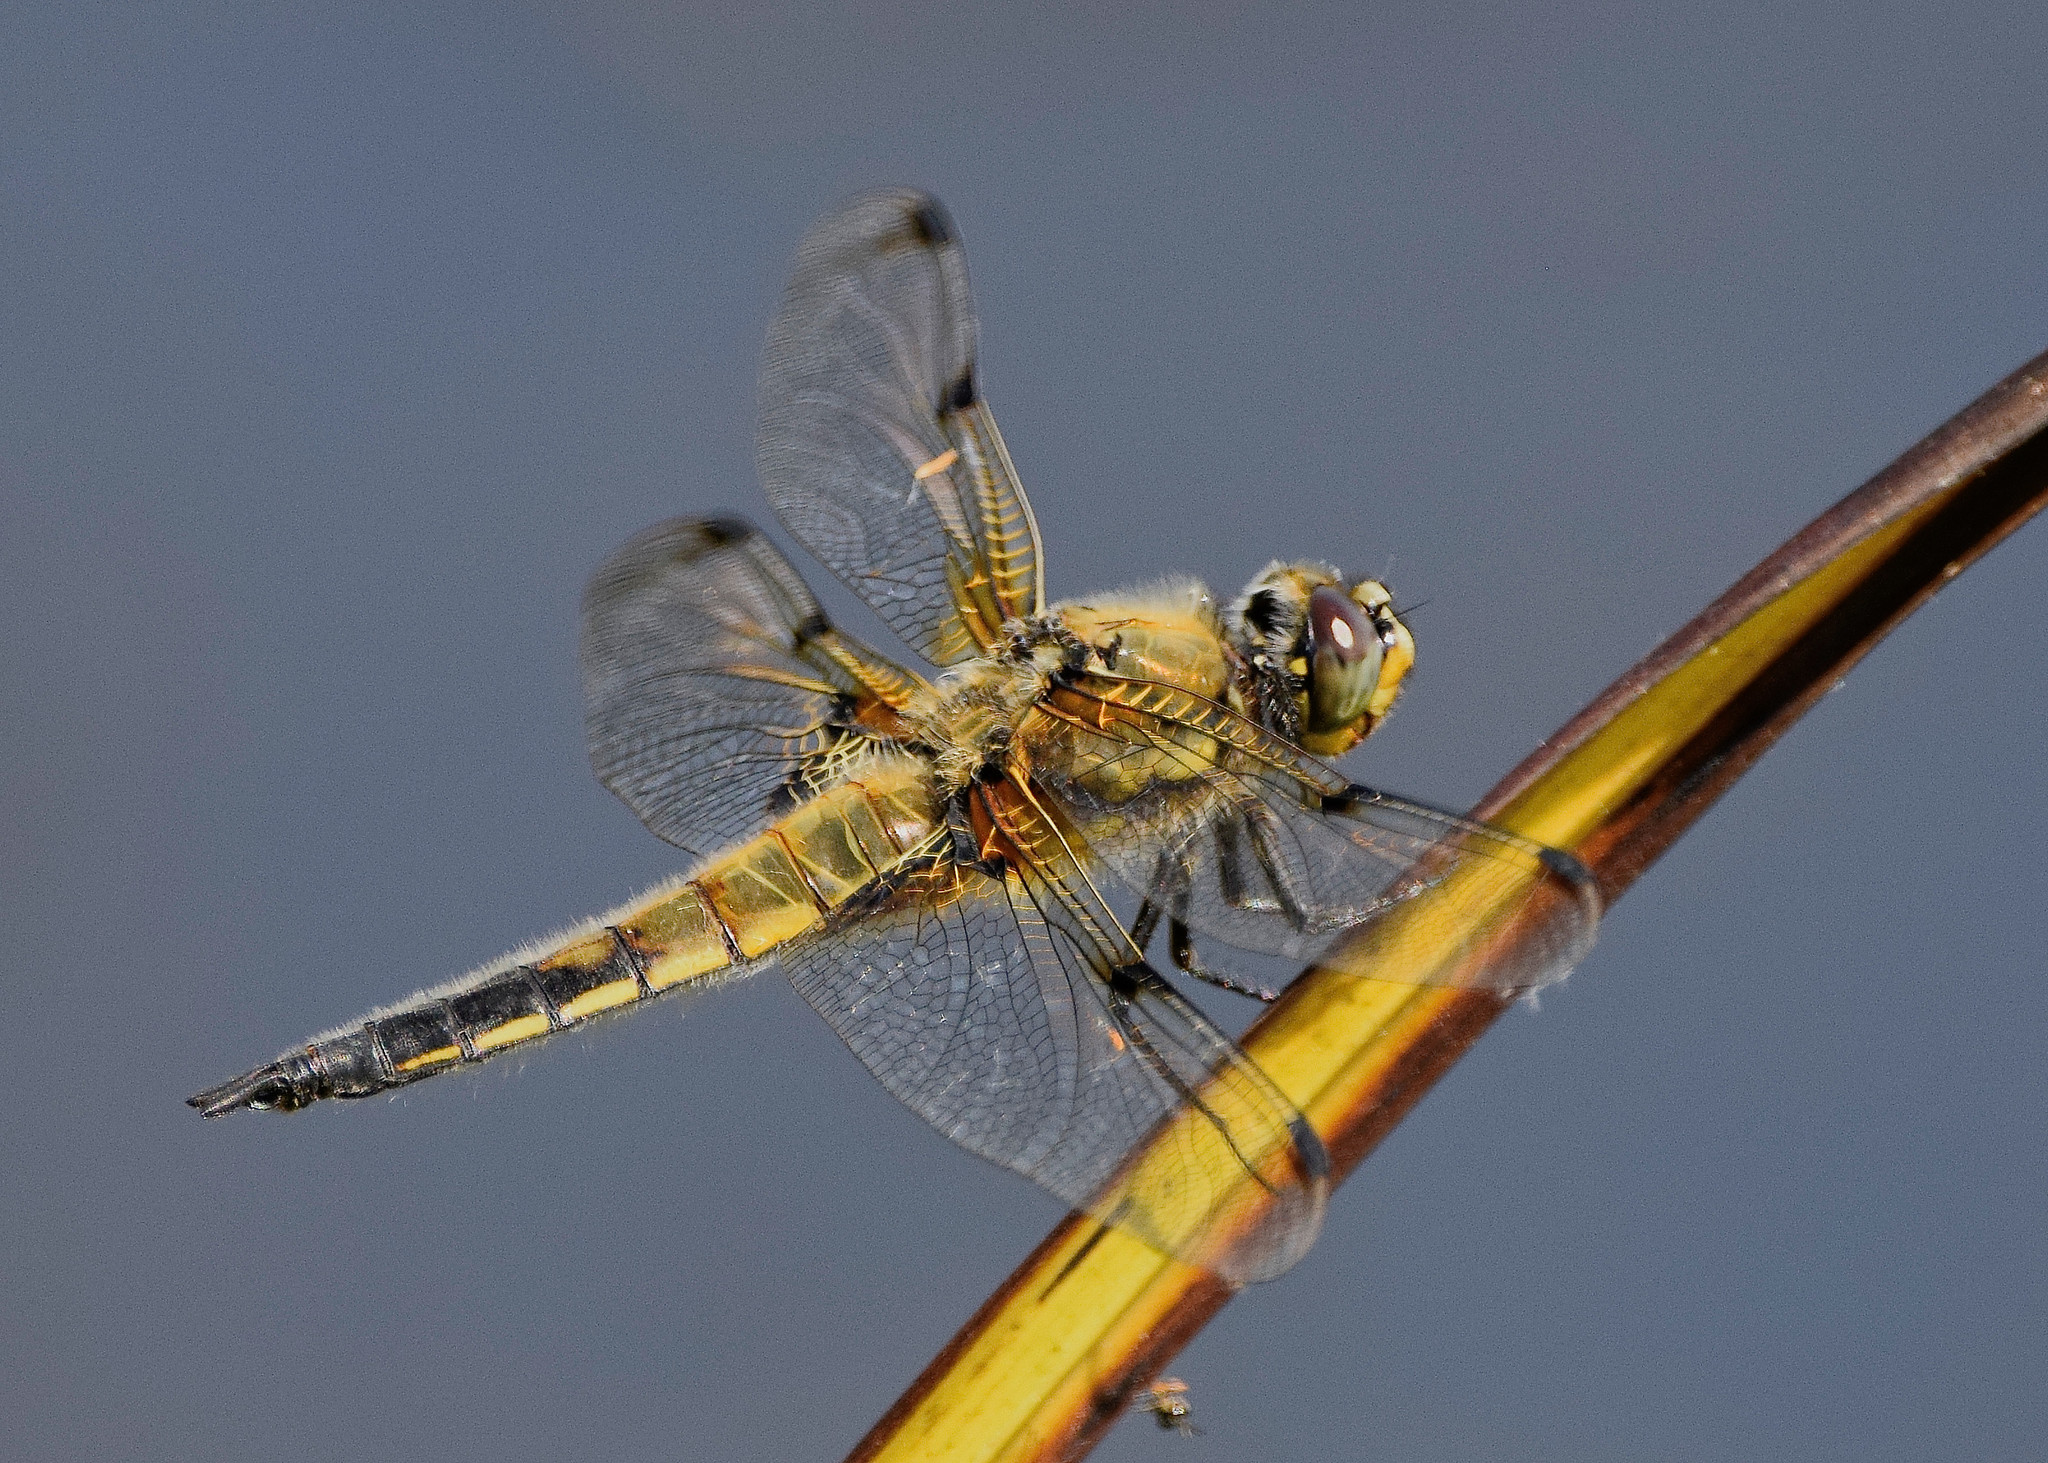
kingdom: Animalia
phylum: Arthropoda
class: Insecta
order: Odonata
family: Libellulidae
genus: Libellula
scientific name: Libellula quadrimaculata
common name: Four-spotted chaser
